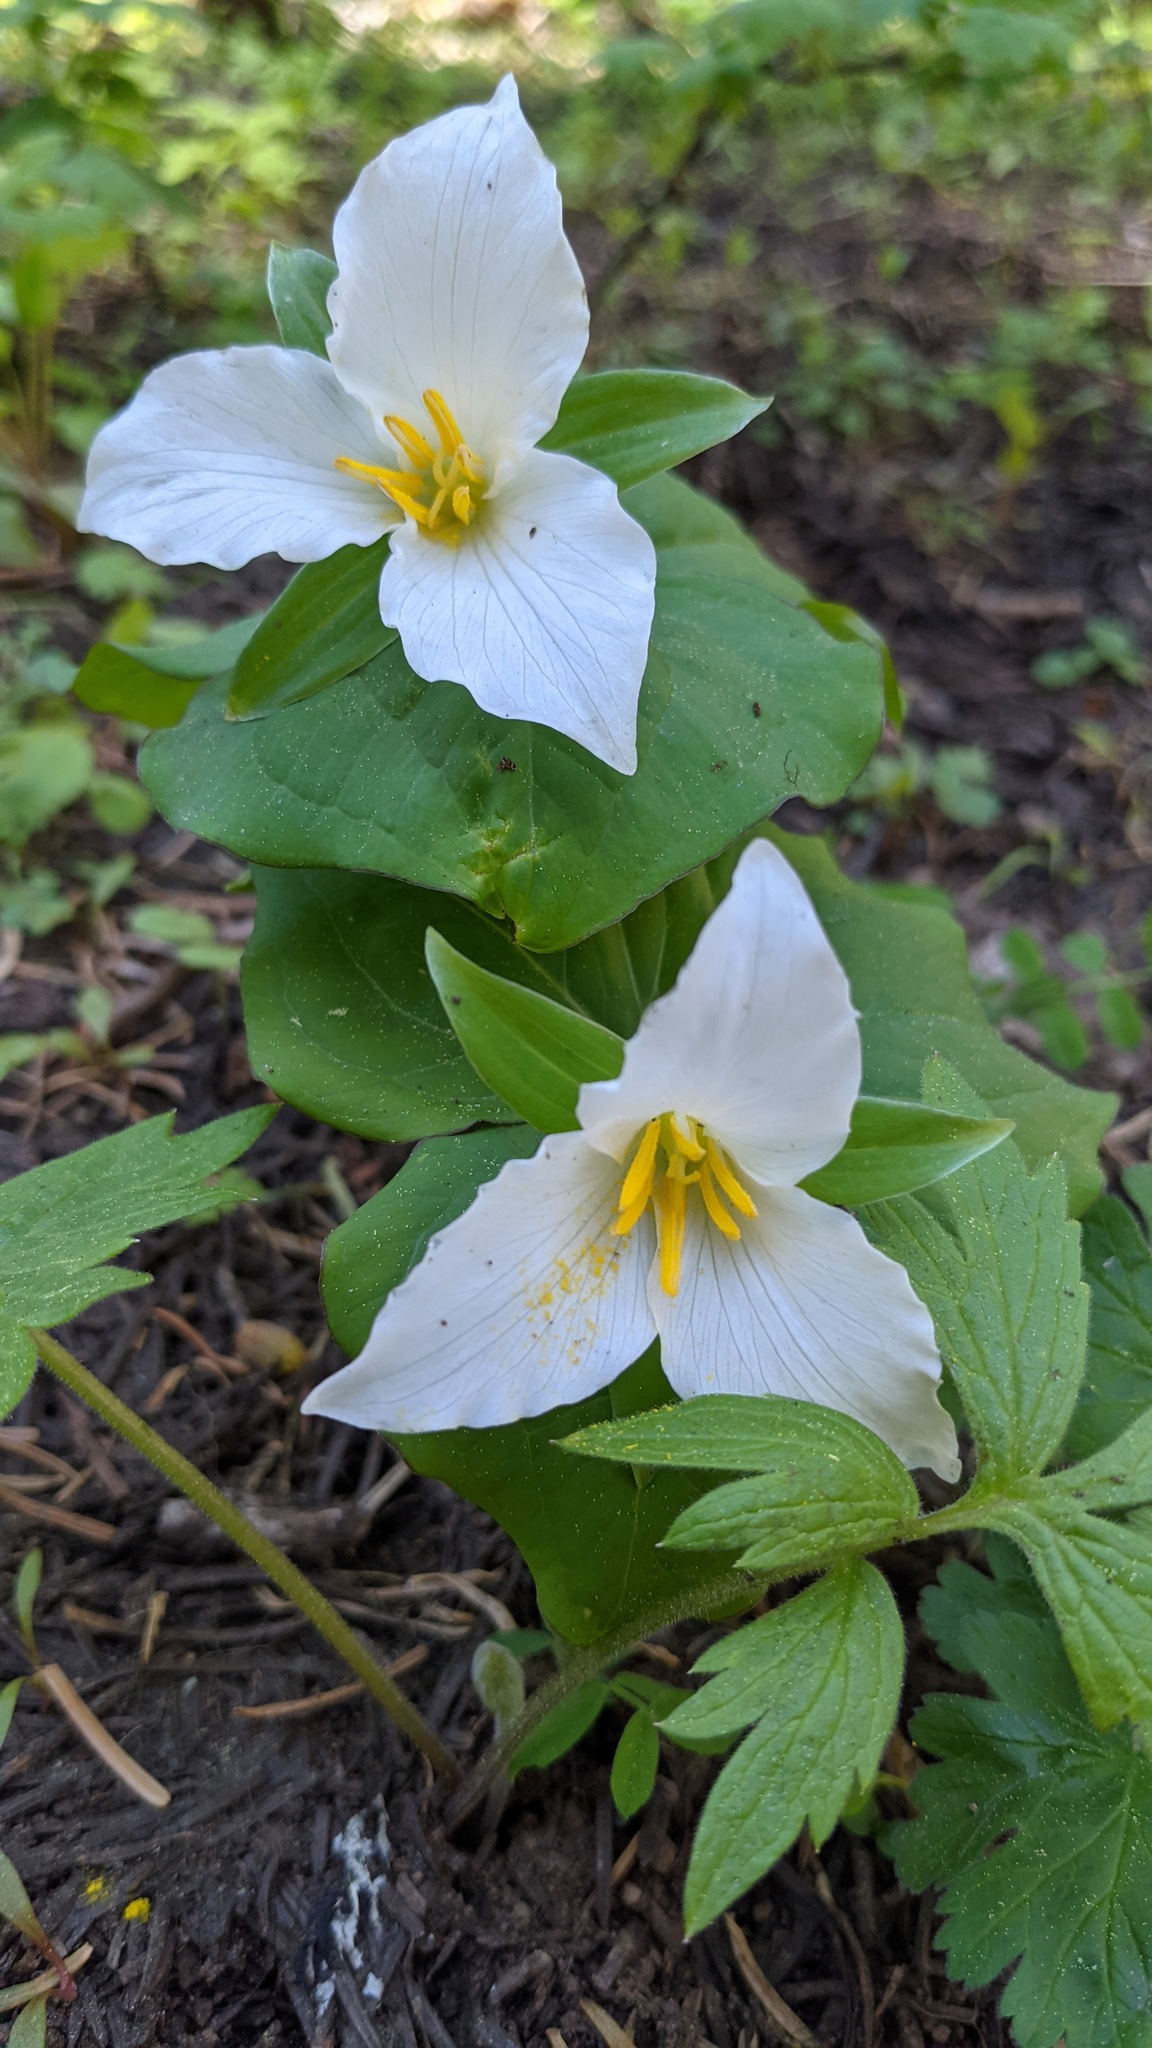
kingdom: Plantae
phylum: Tracheophyta
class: Liliopsida
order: Liliales
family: Melanthiaceae
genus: Trillium
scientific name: Trillium ovatum
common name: Pacific trillium
